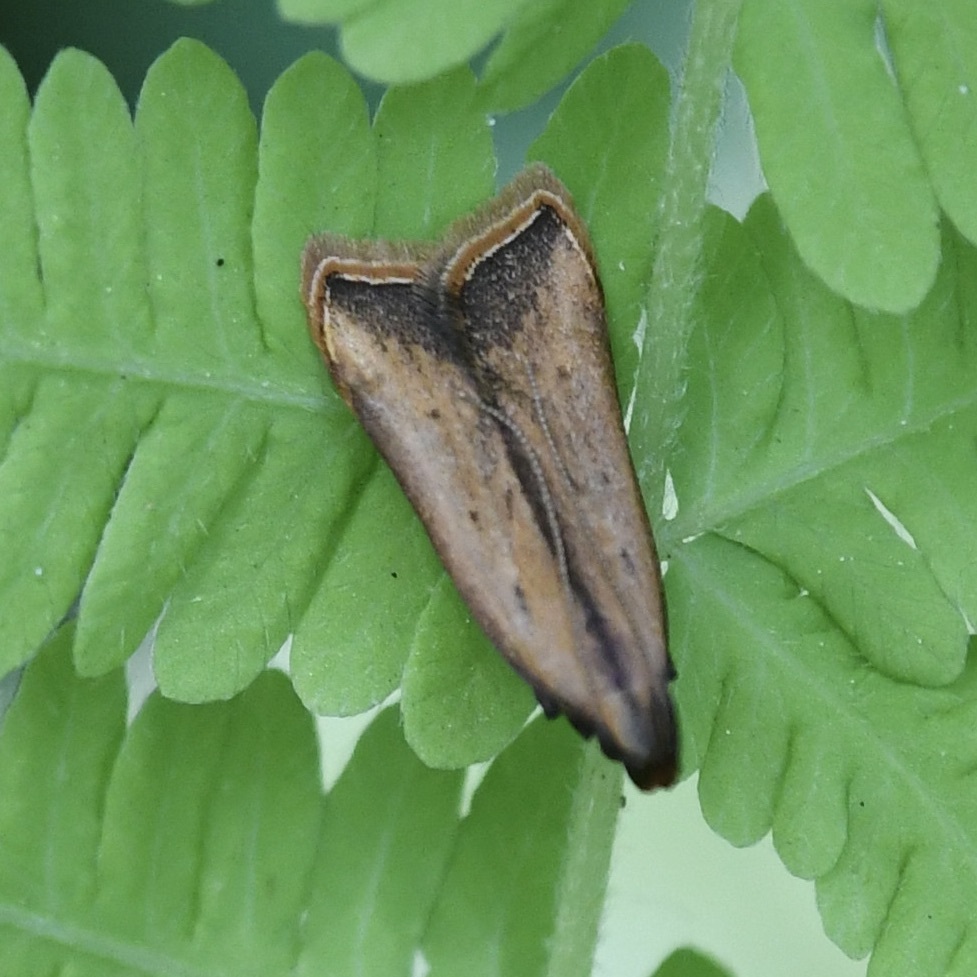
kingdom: Animalia
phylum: Arthropoda
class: Insecta
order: Lepidoptera
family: Gelechiidae
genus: Dichomeris
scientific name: Dichomeris heriguronis
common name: Black-edged dichomeris moth
